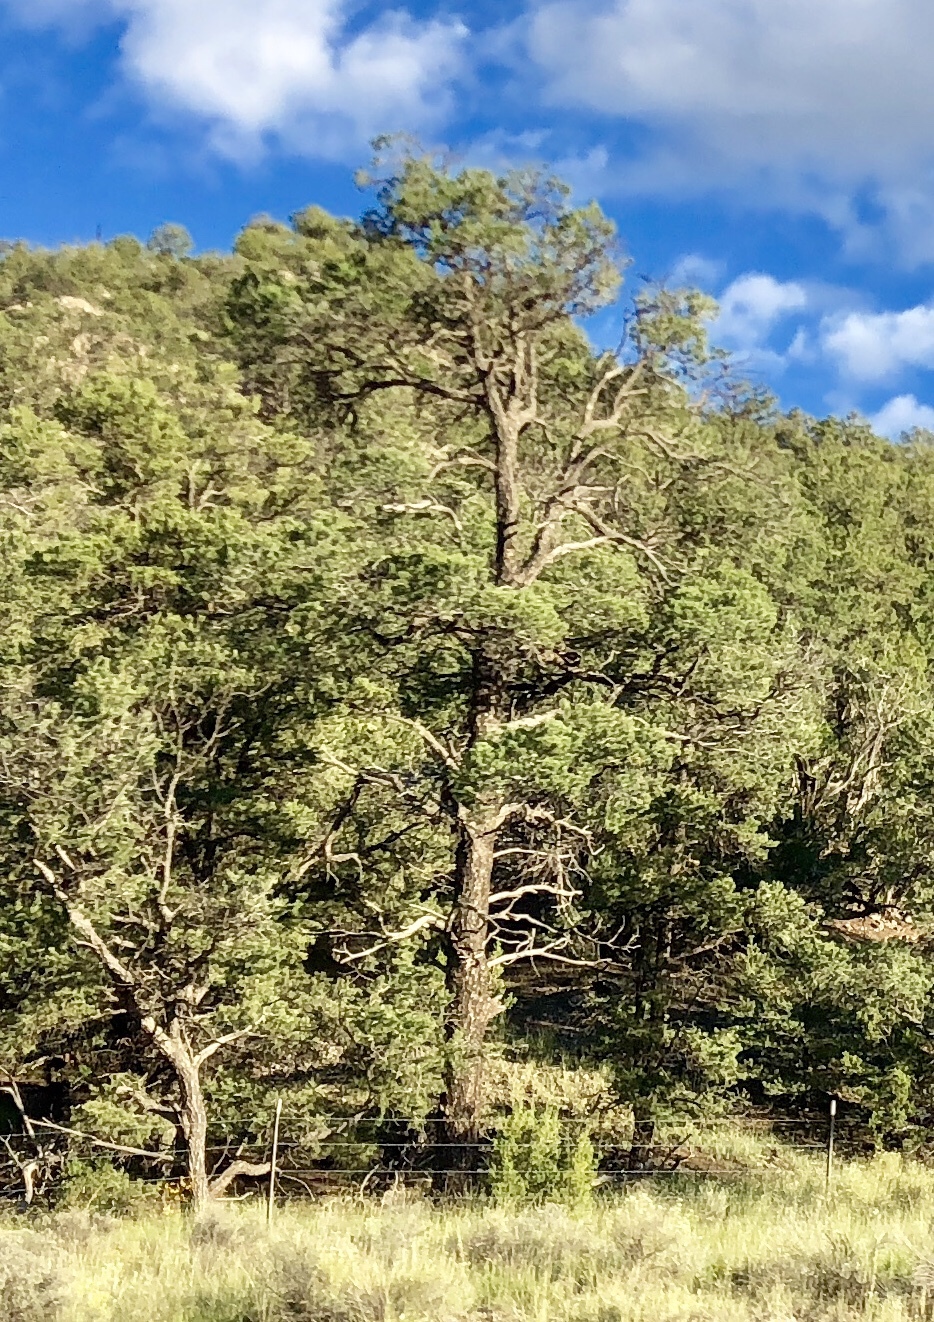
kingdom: Plantae
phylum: Tracheophyta
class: Pinopsida
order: Pinales
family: Pinaceae
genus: Pinus
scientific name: Pinus ponderosa
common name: Western yellow-pine
